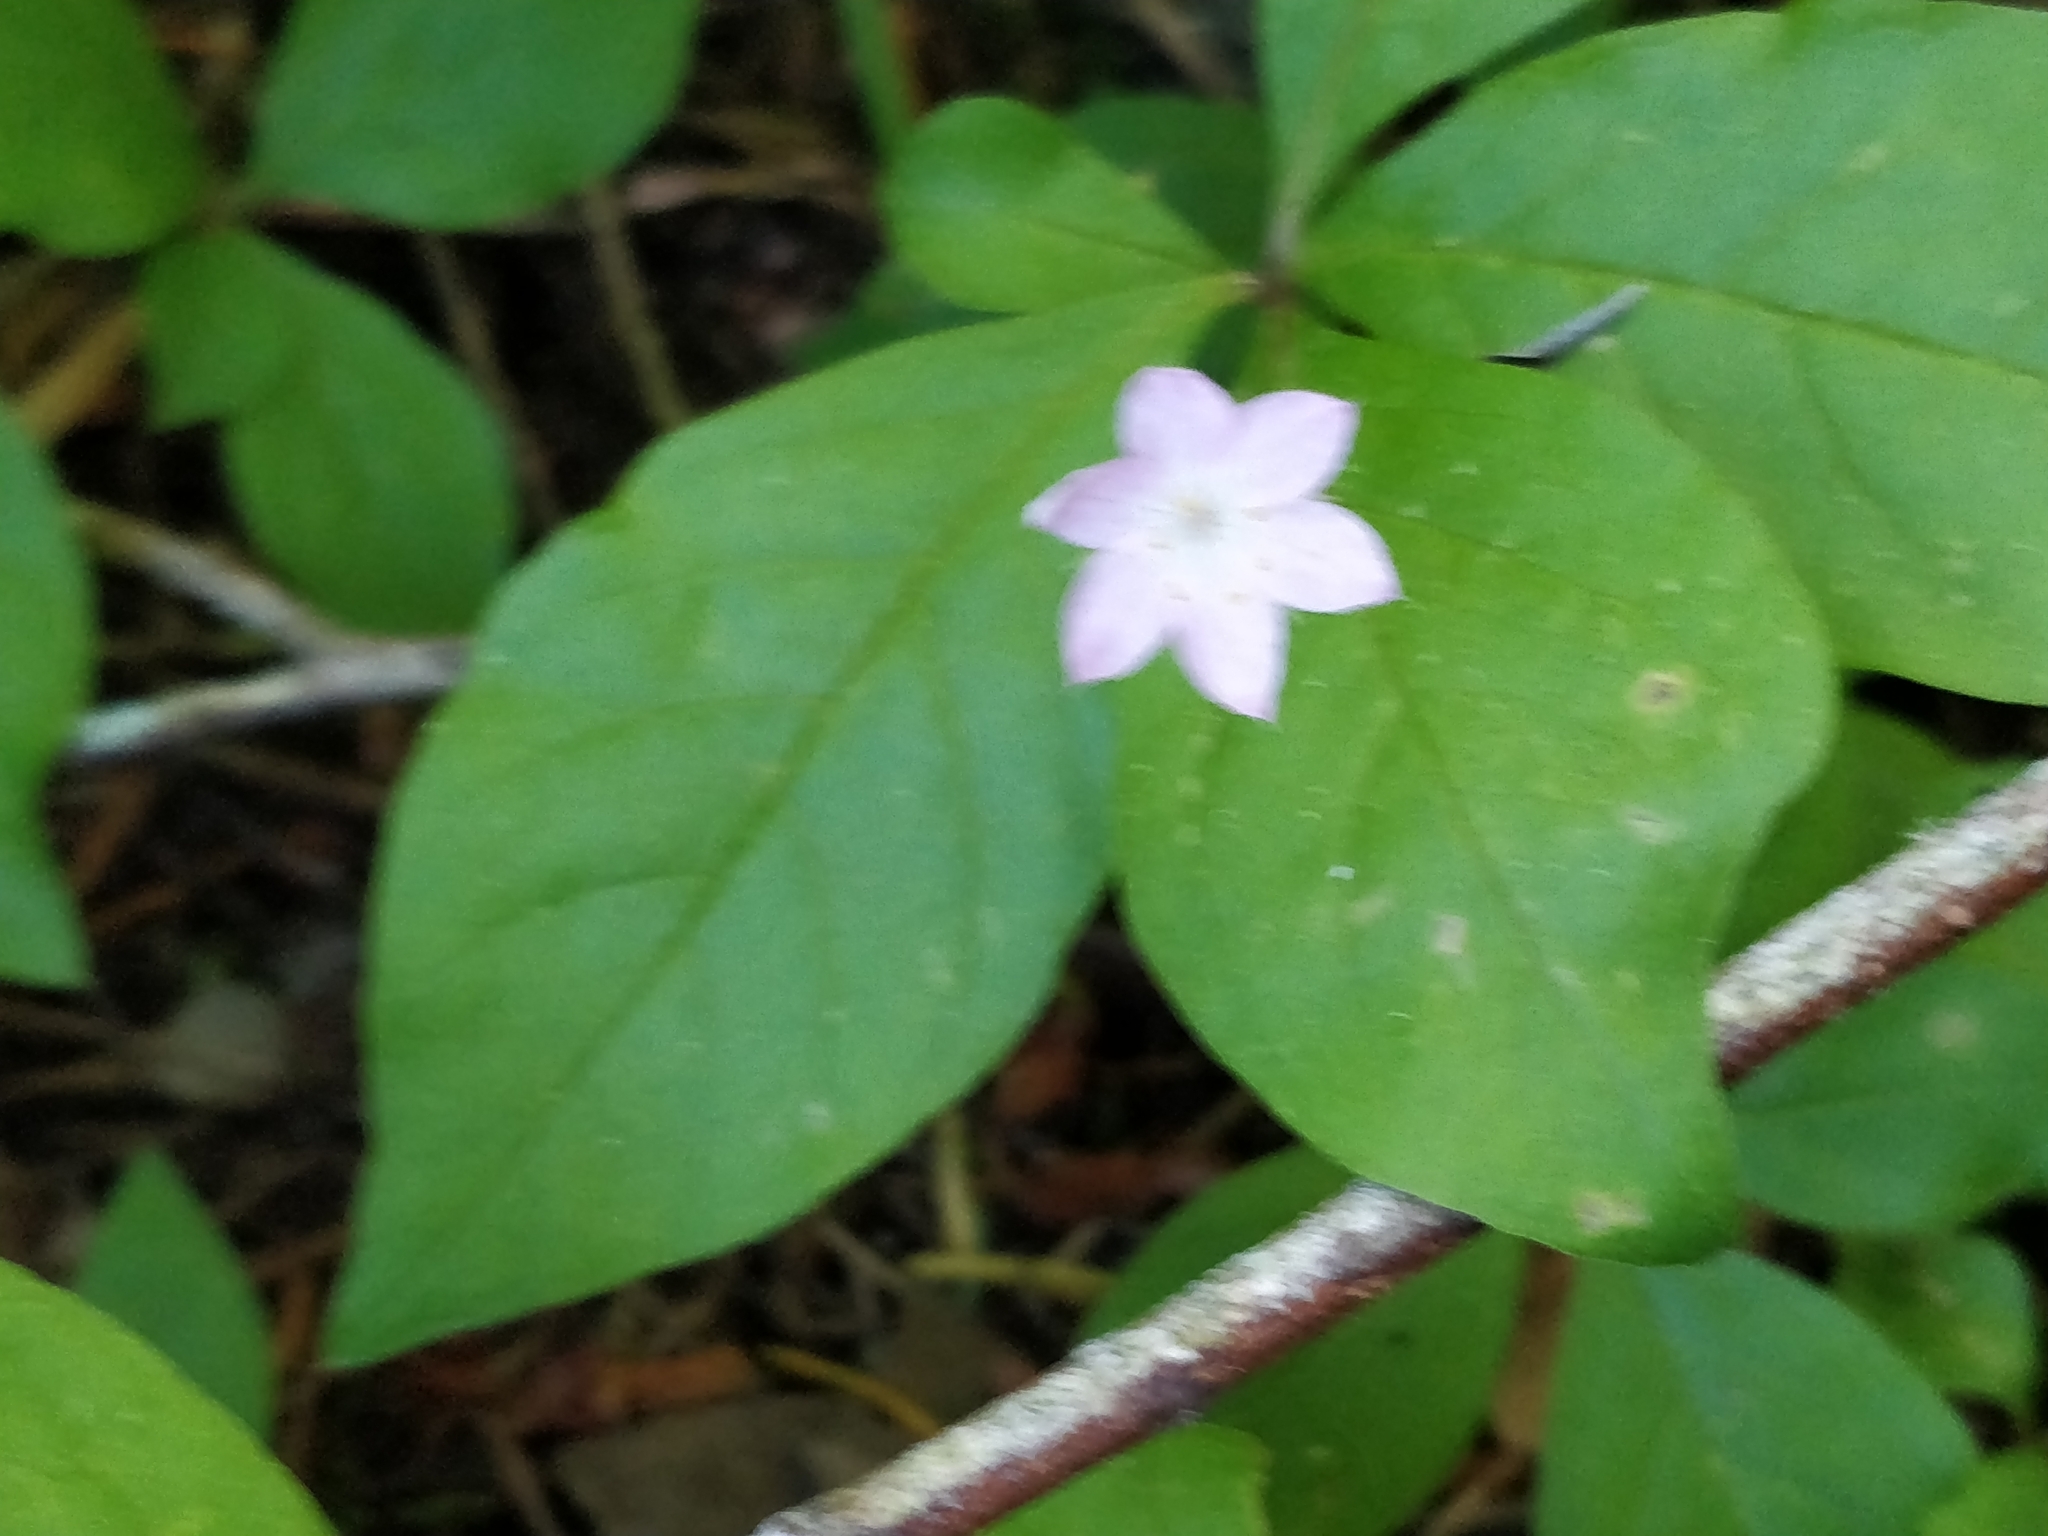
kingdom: Plantae
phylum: Tracheophyta
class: Magnoliopsida
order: Ericales
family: Primulaceae
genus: Lysimachia
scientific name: Lysimachia latifolia
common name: Pacific starflower
